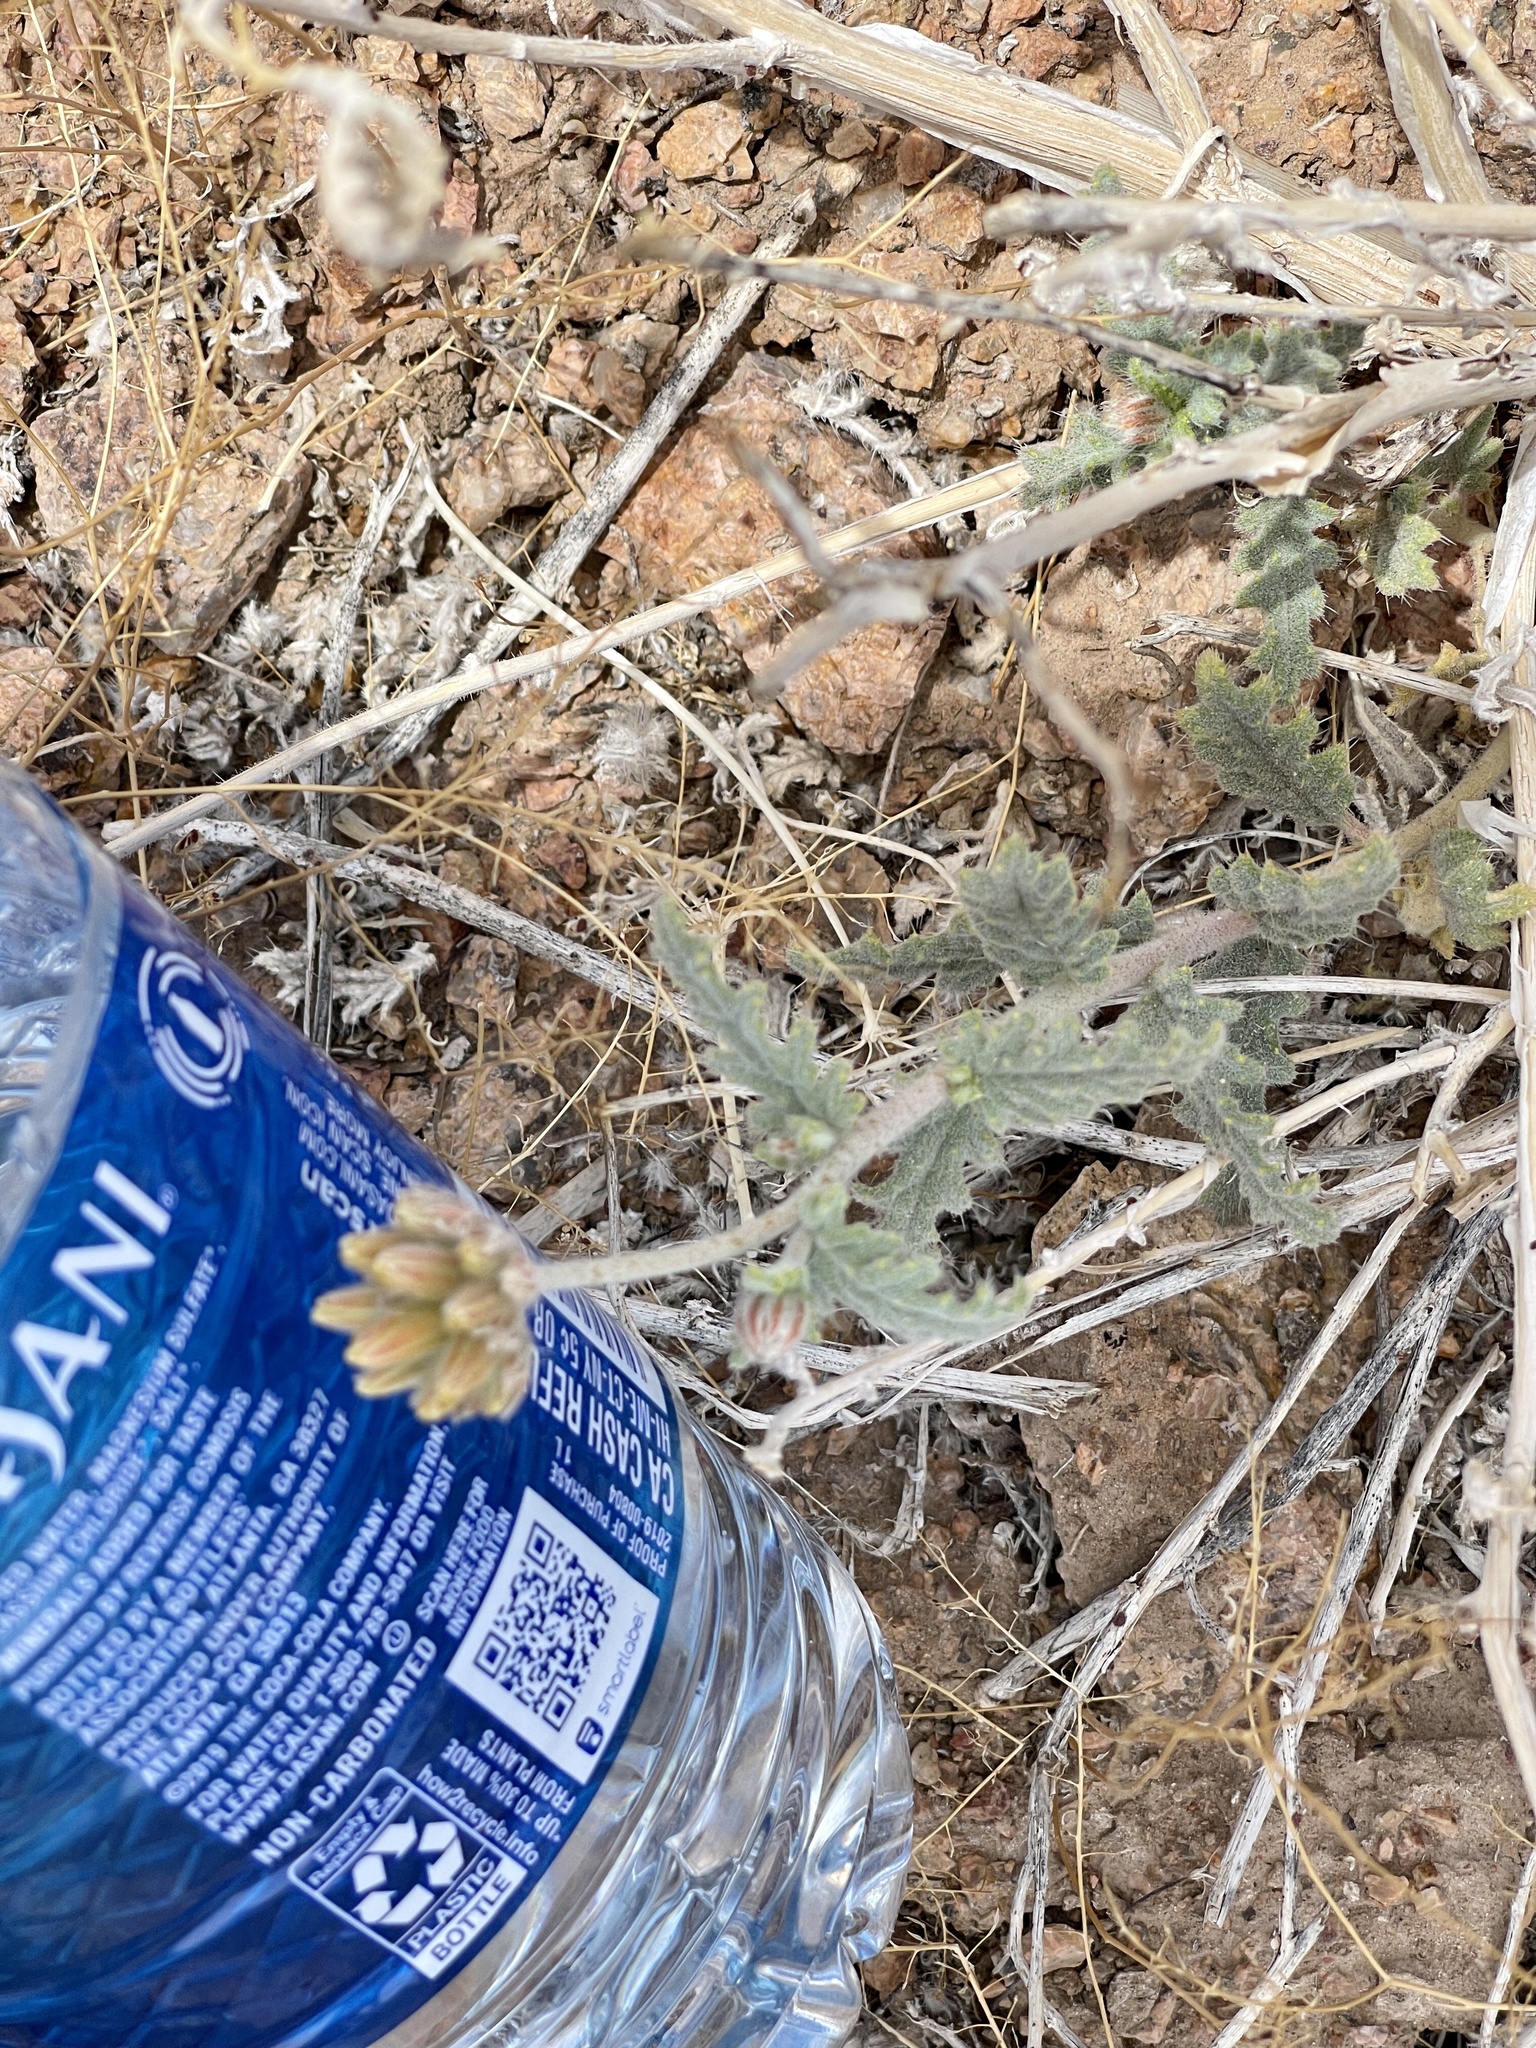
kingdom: Plantae
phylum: Tracheophyta
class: Magnoliopsida
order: Cornales
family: Loasaceae
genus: Cevallia
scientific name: Cevallia sinuata
